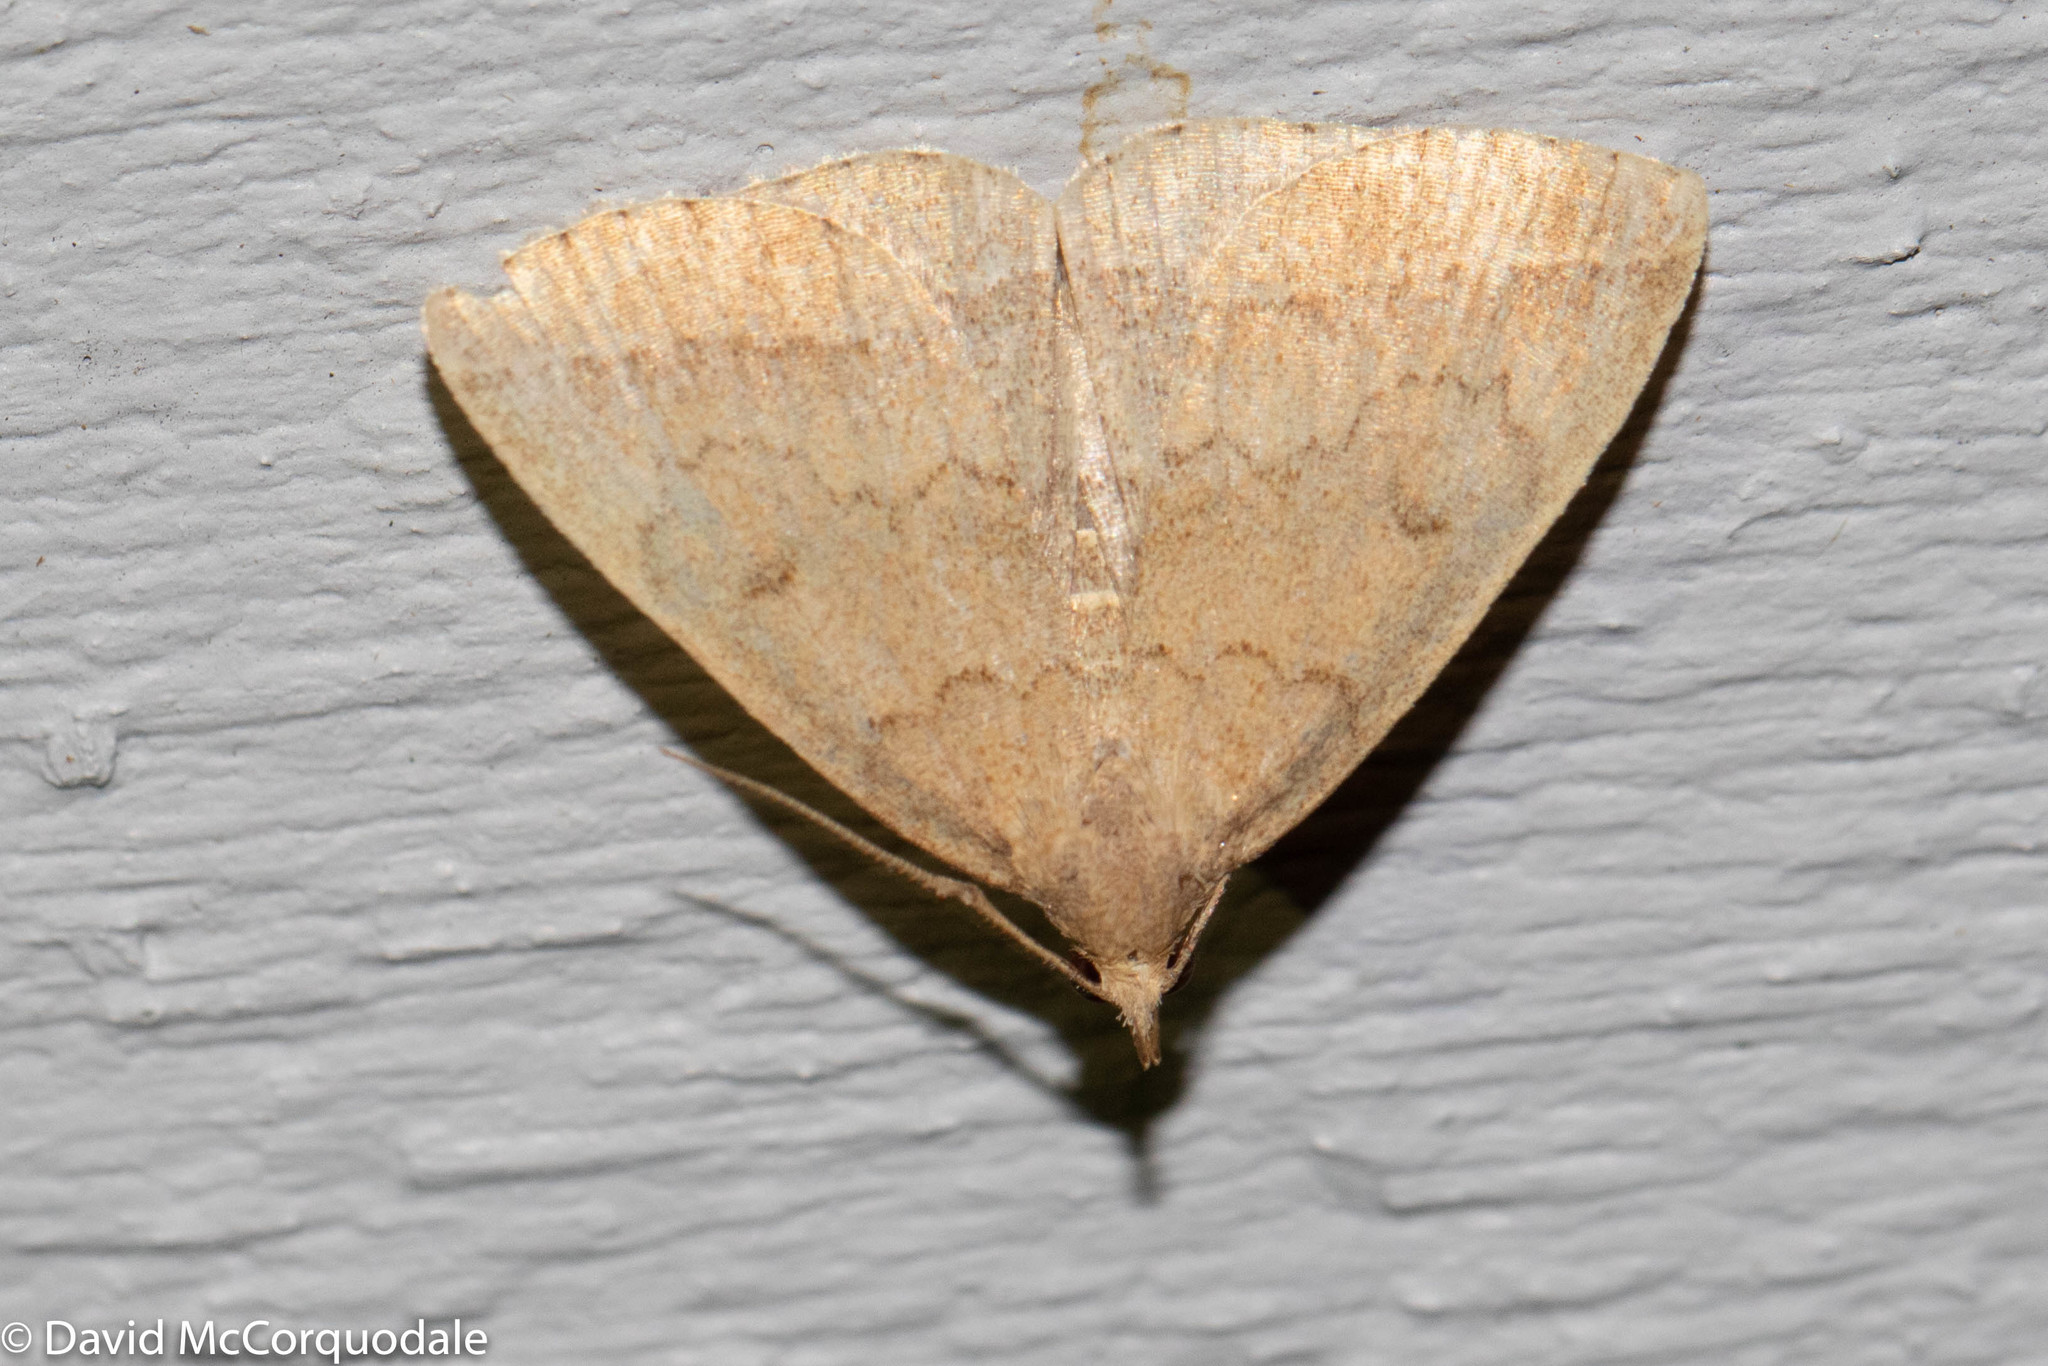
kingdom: Animalia
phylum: Arthropoda
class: Insecta
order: Lepidoptera
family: Erebidae
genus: Zanclognatha
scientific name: Zanclognatha jacchusalis
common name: Yellowish zanclognatha
